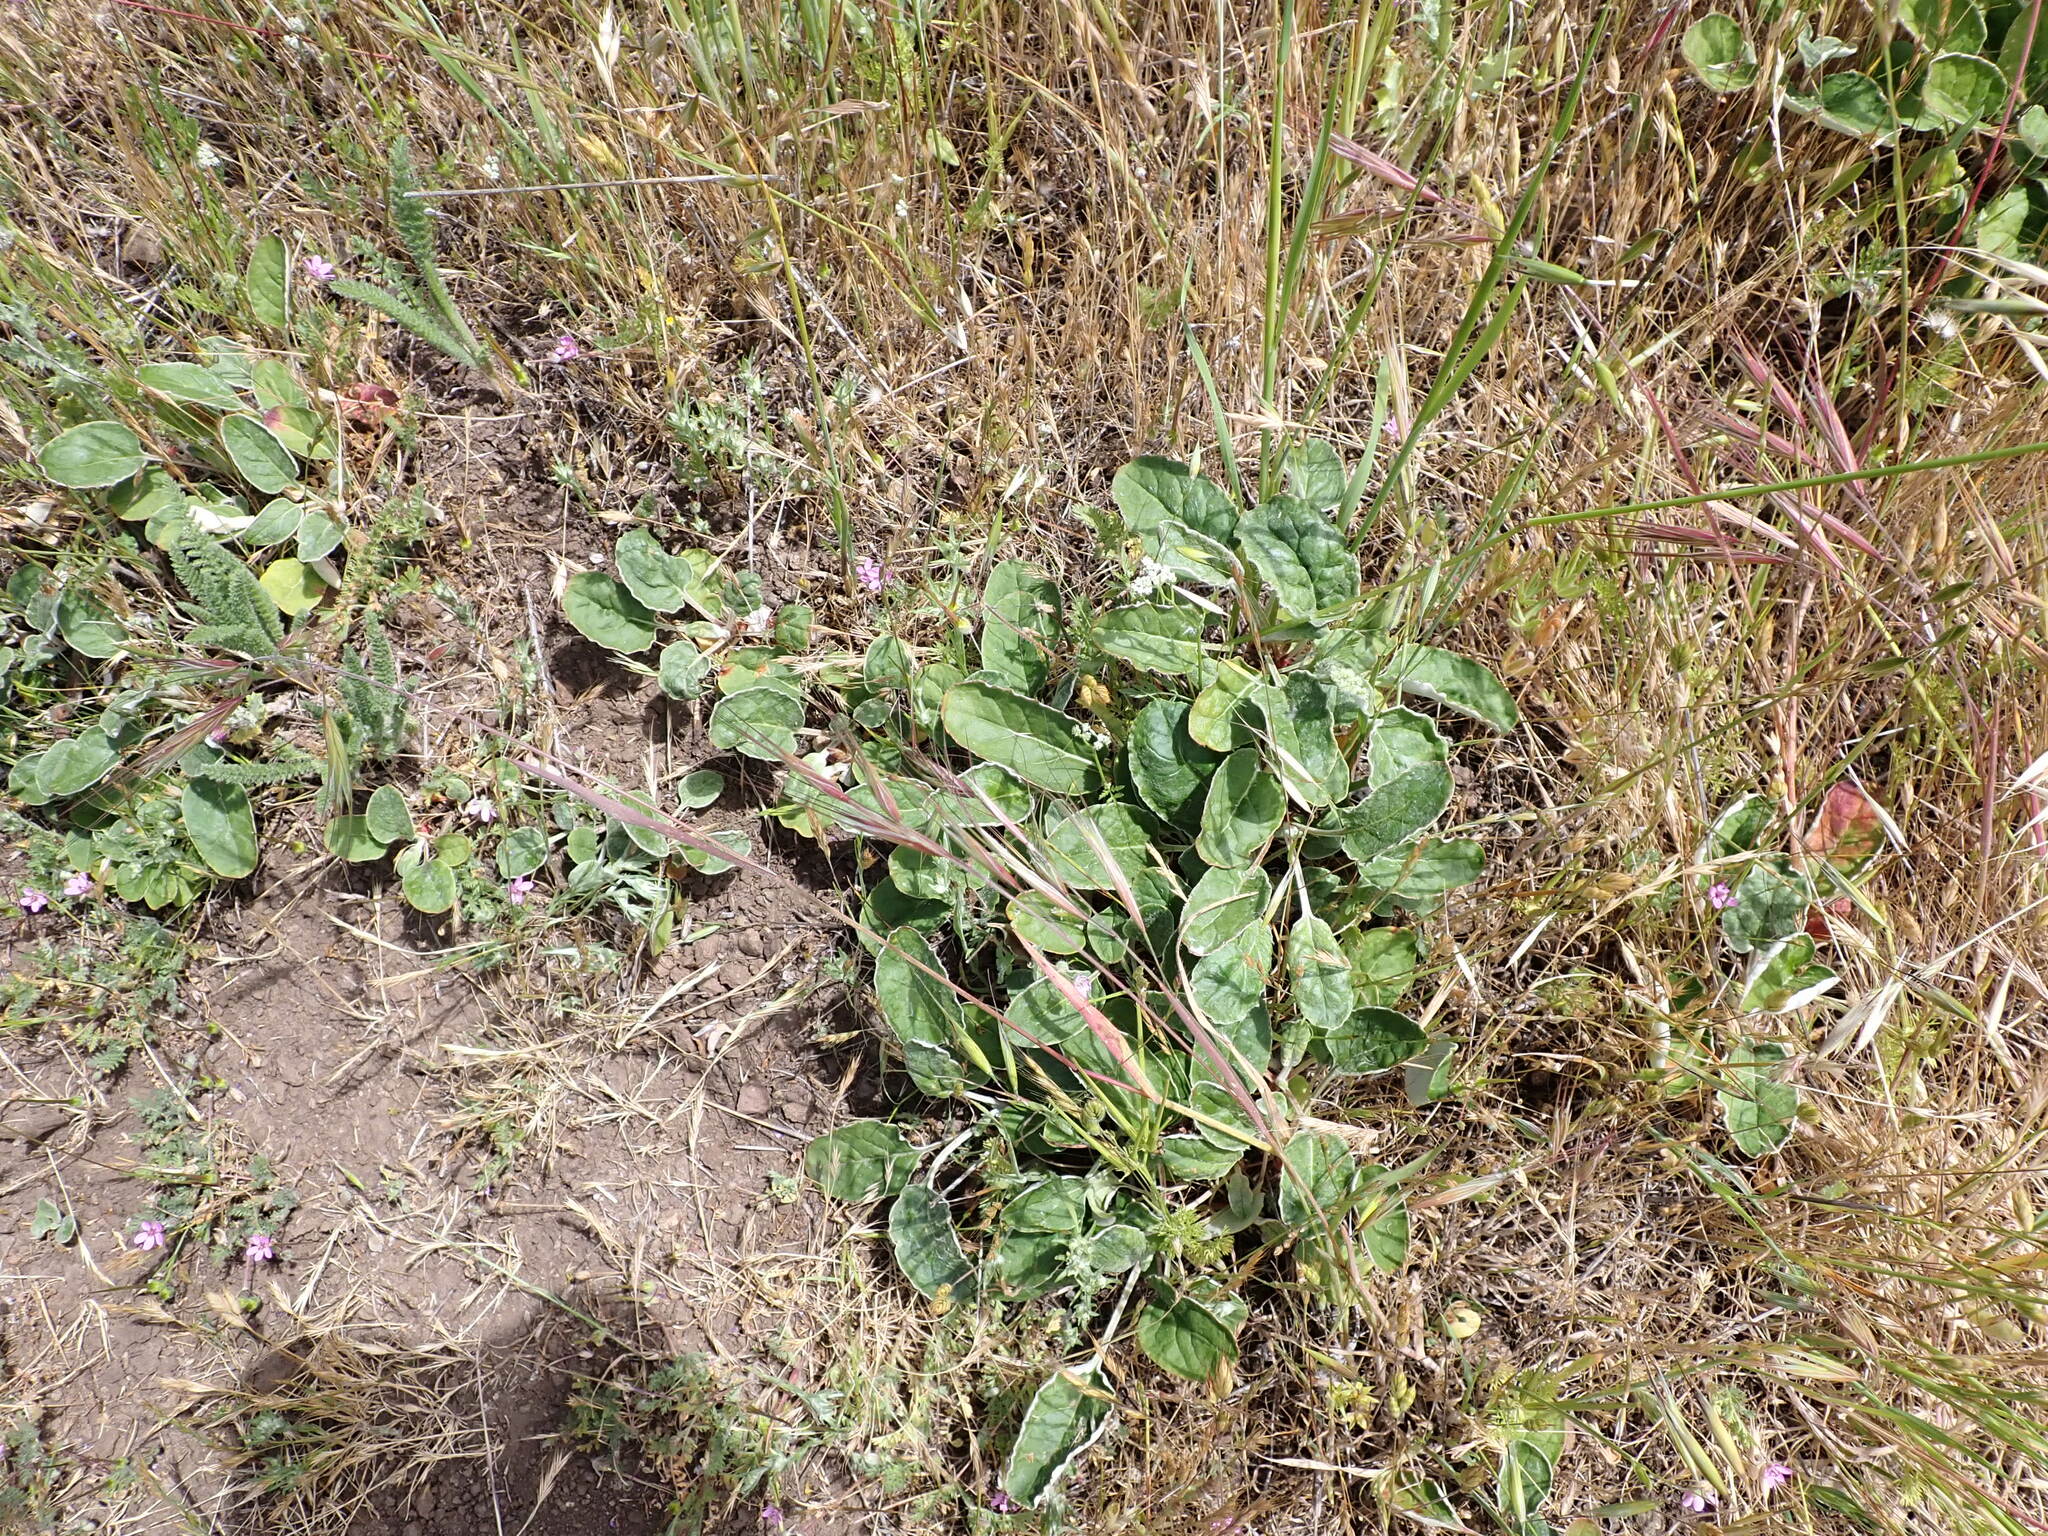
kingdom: Plantae
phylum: Tracheophyta
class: Magnoliopsida
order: Caryophyllales
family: Polygonaceae
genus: Eriogonum
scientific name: Eriogonum nudum
